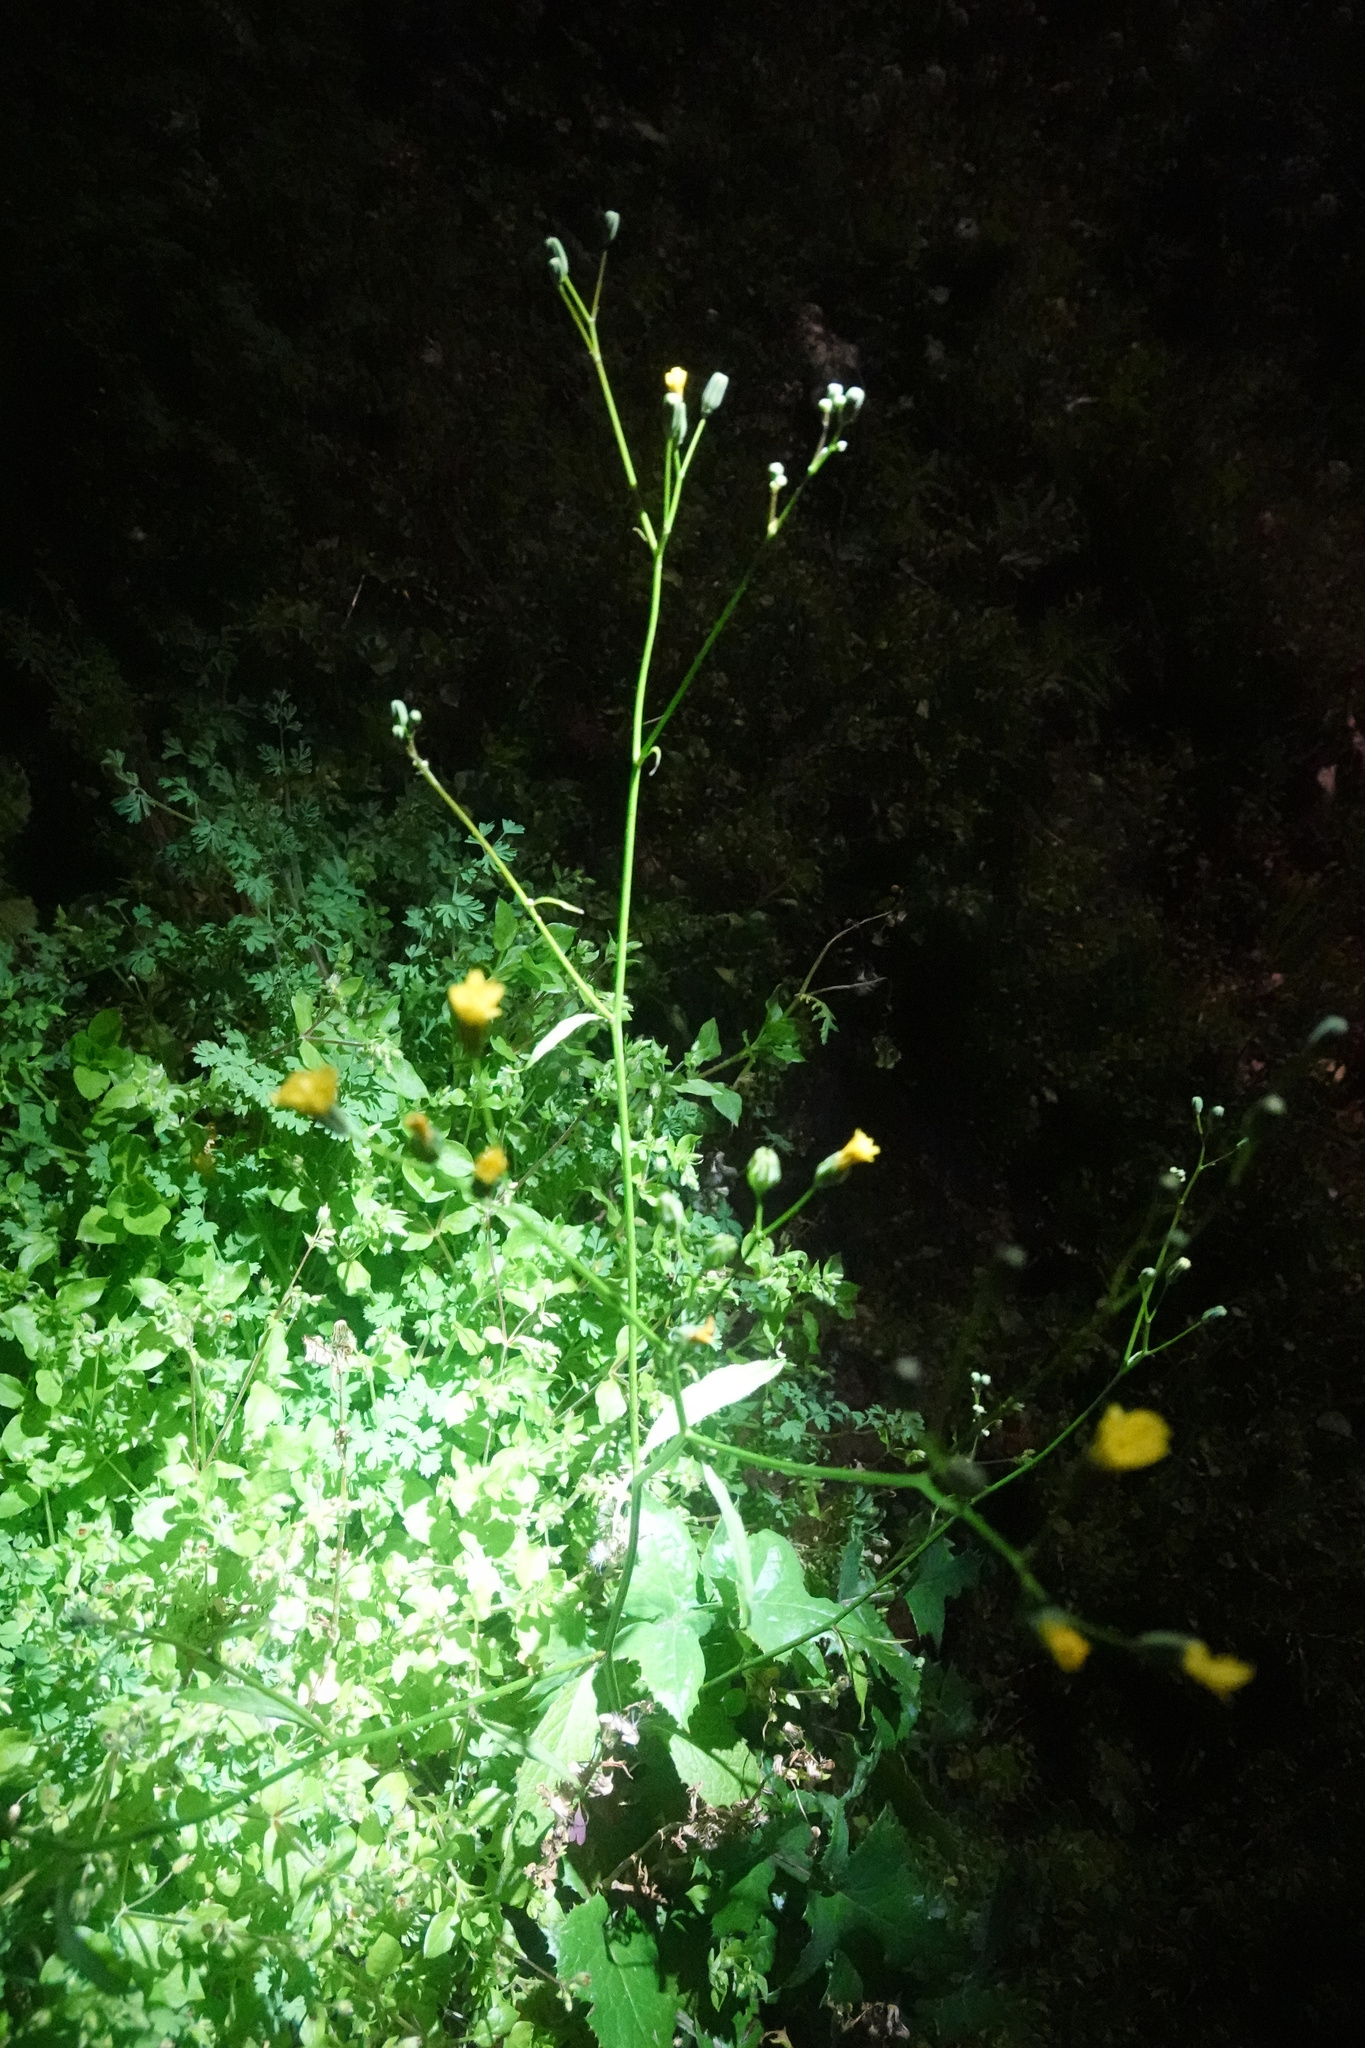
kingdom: Plantae
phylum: Tracheophyta
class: Magnoliopsida
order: Asterales
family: Asteraceae
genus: Lapsana
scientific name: Lapsana communis
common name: Nipplewort
